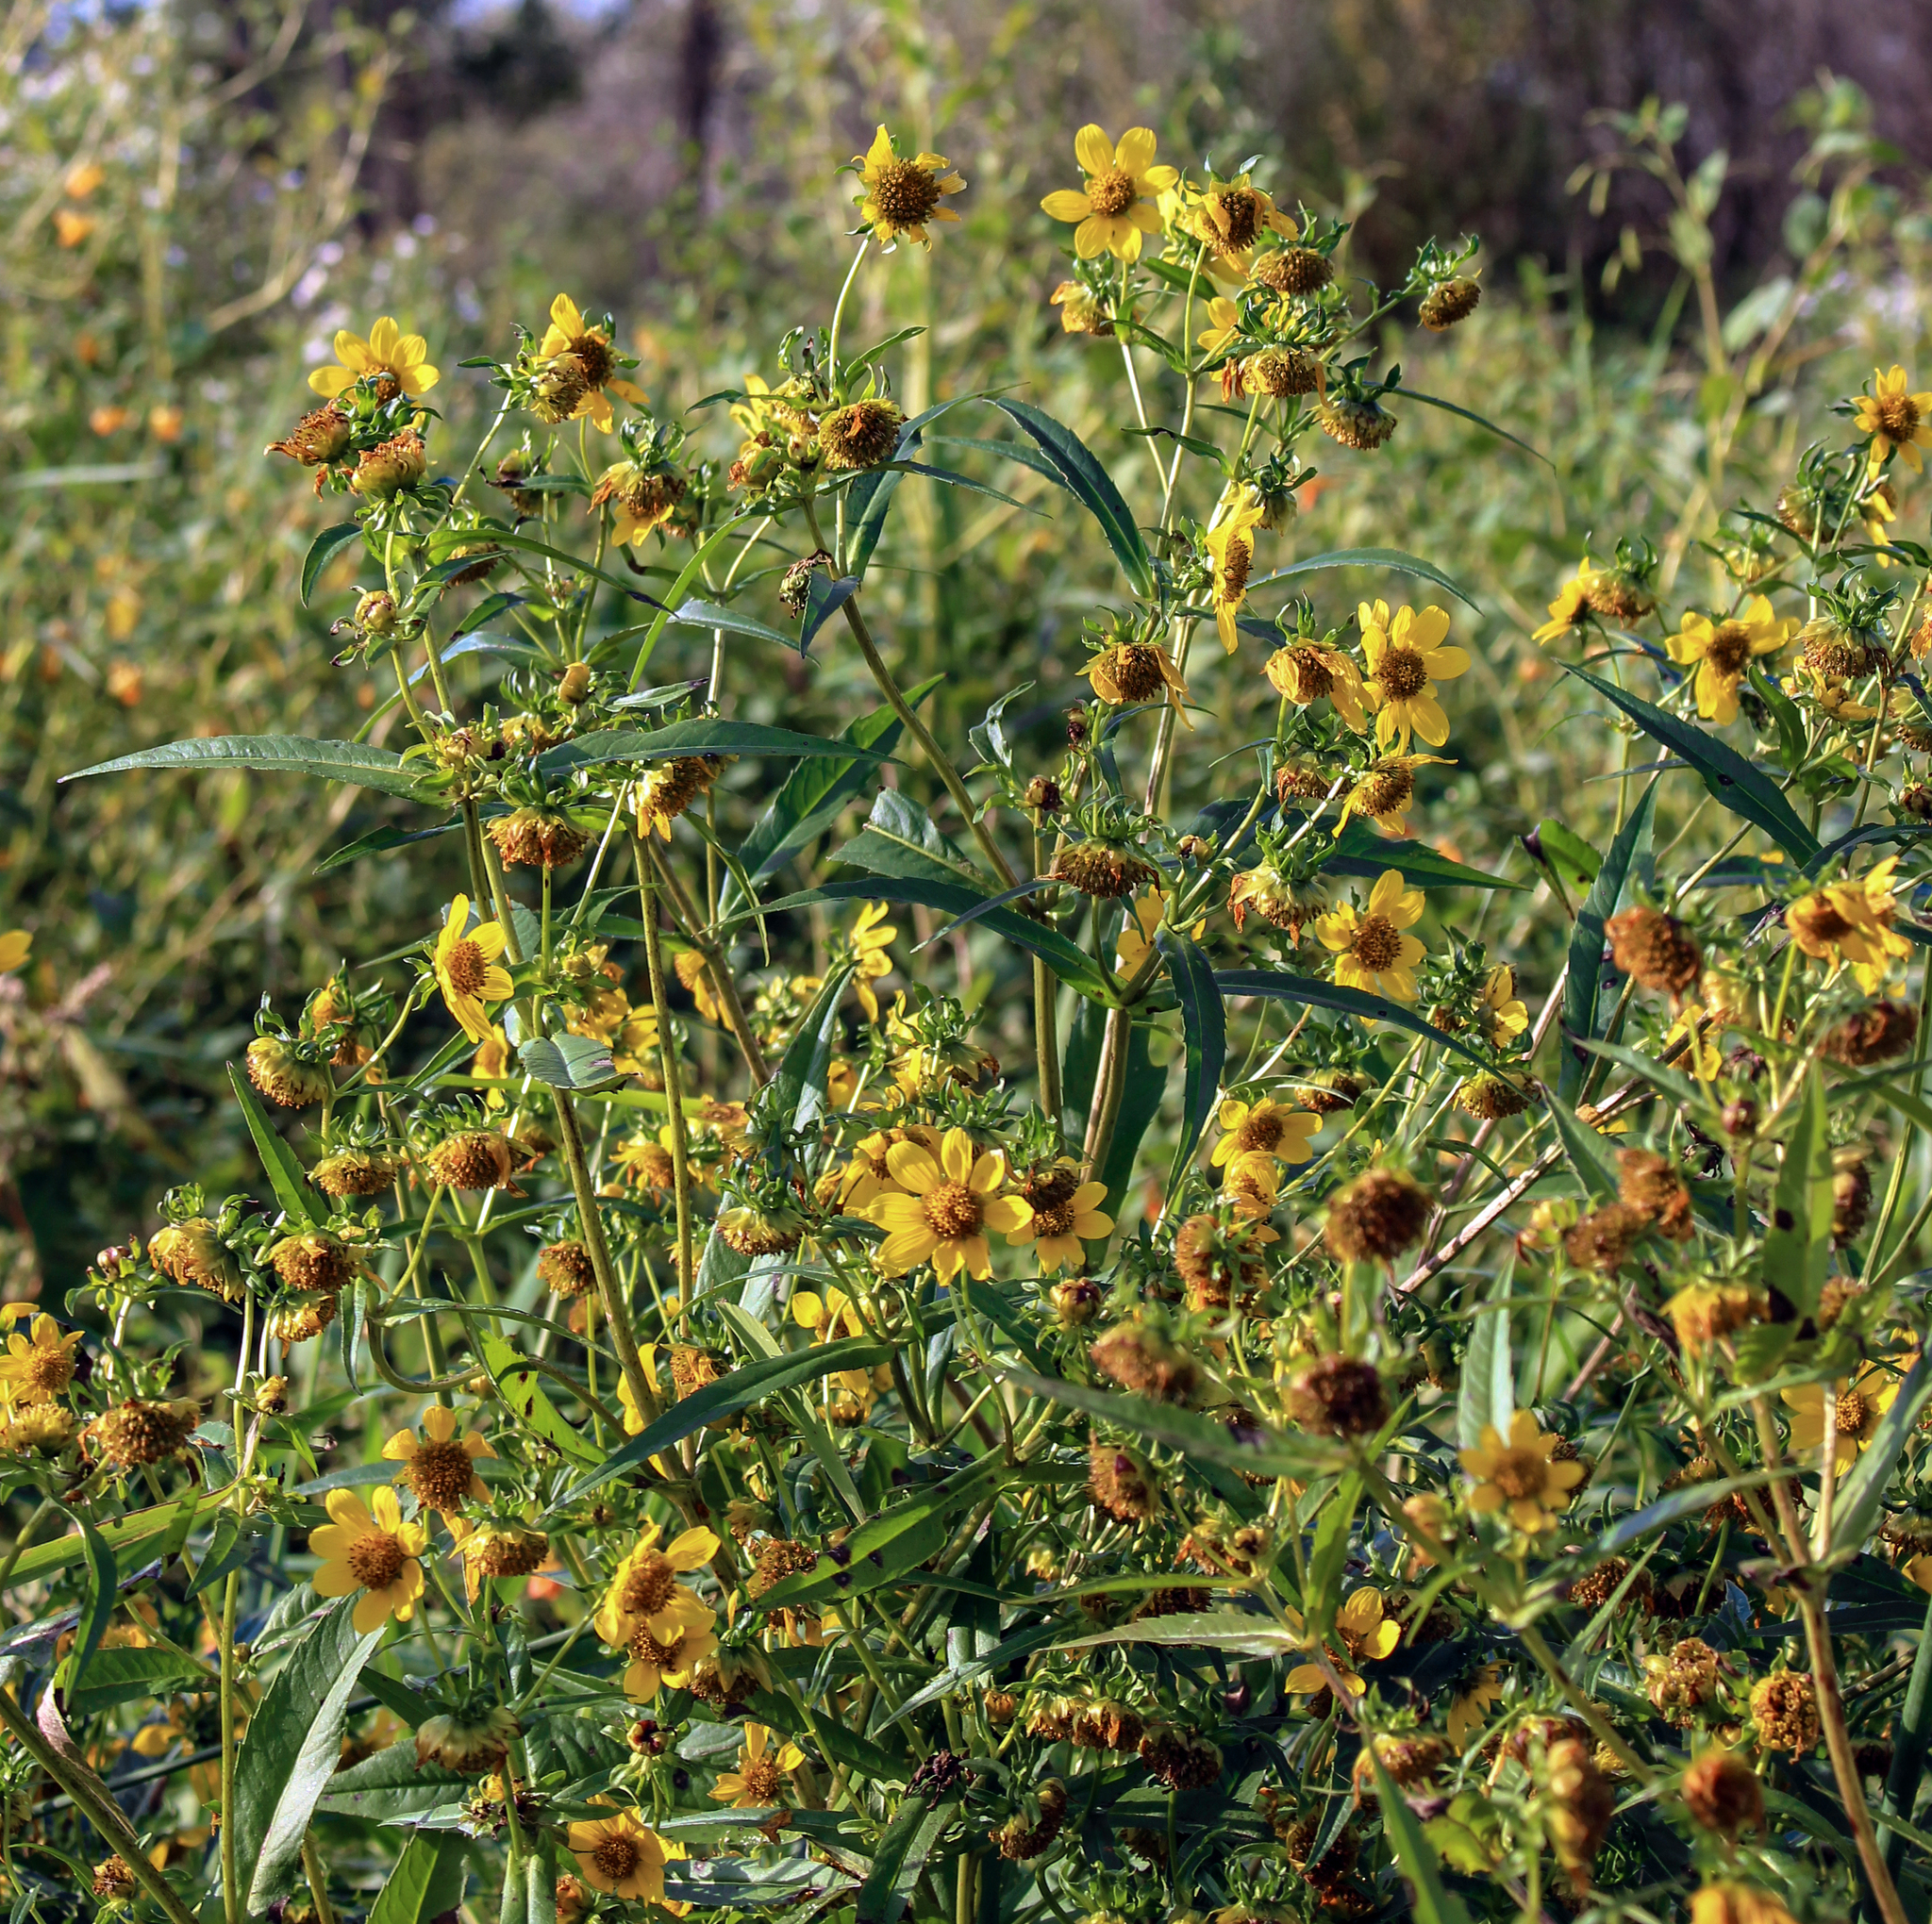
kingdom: Plantae
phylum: Tracheophyta
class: Magnoliopsida
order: Asterales
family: Asteraceae
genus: Bidens
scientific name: Bidens cernua
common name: Nodding bur-marigold
